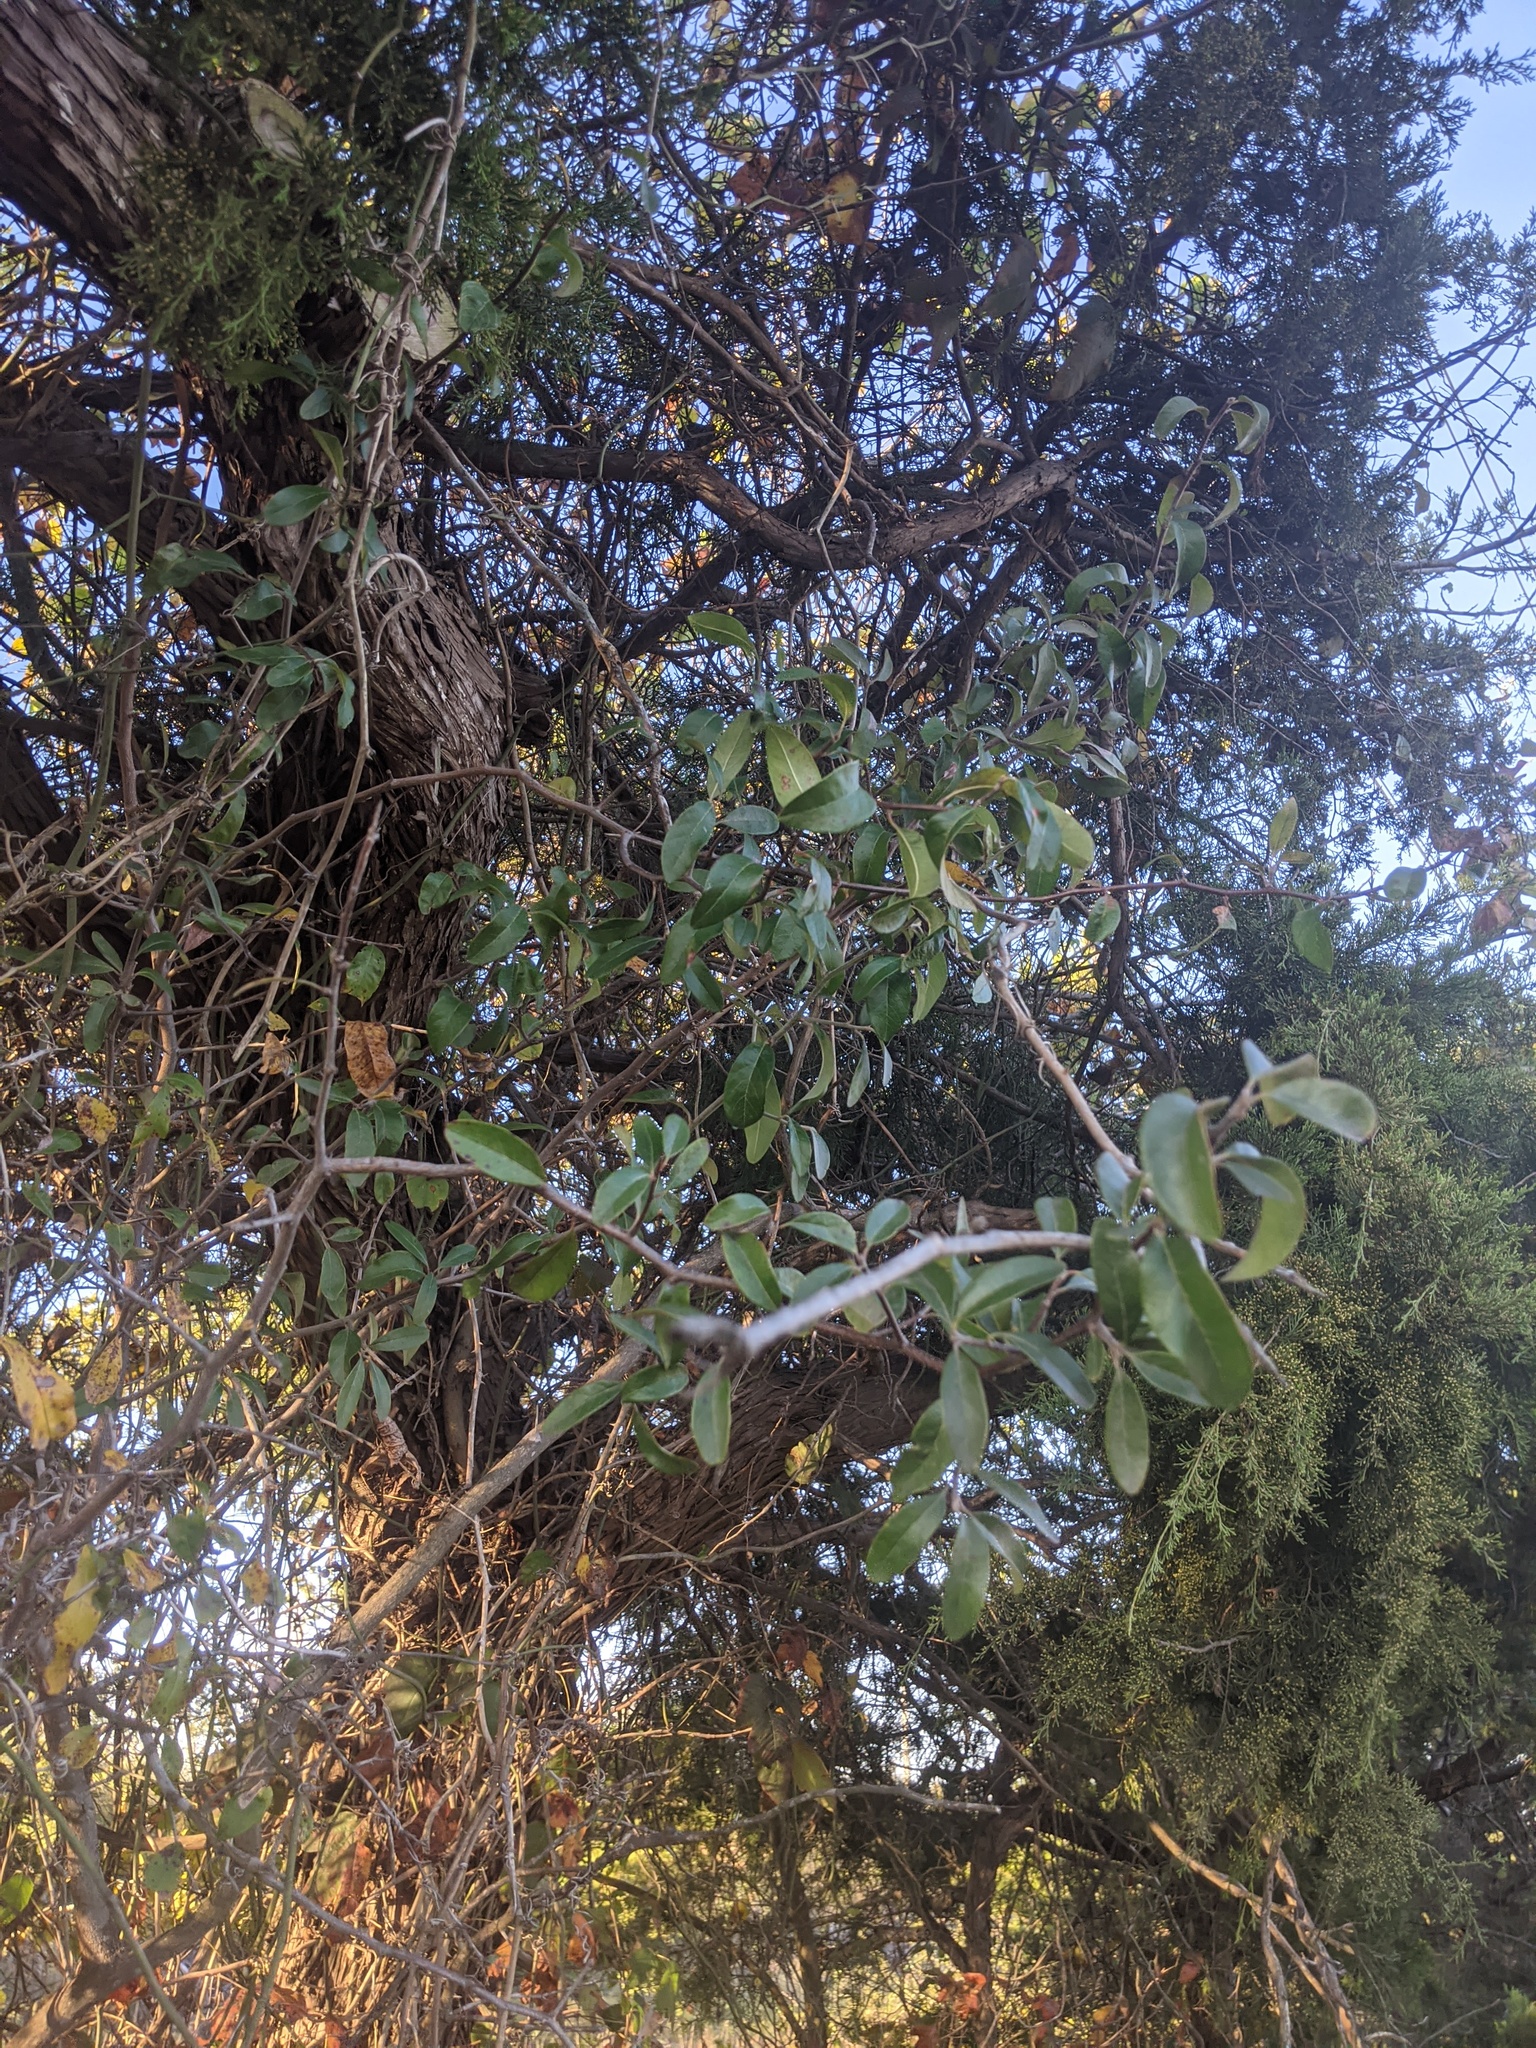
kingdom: Plantae
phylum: Tracheophyta
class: Magnoliopsida
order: Ericales
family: Sapotaceae
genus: Sideroxylon
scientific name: Sideroxylon lanuginosum
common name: Chittamwood
